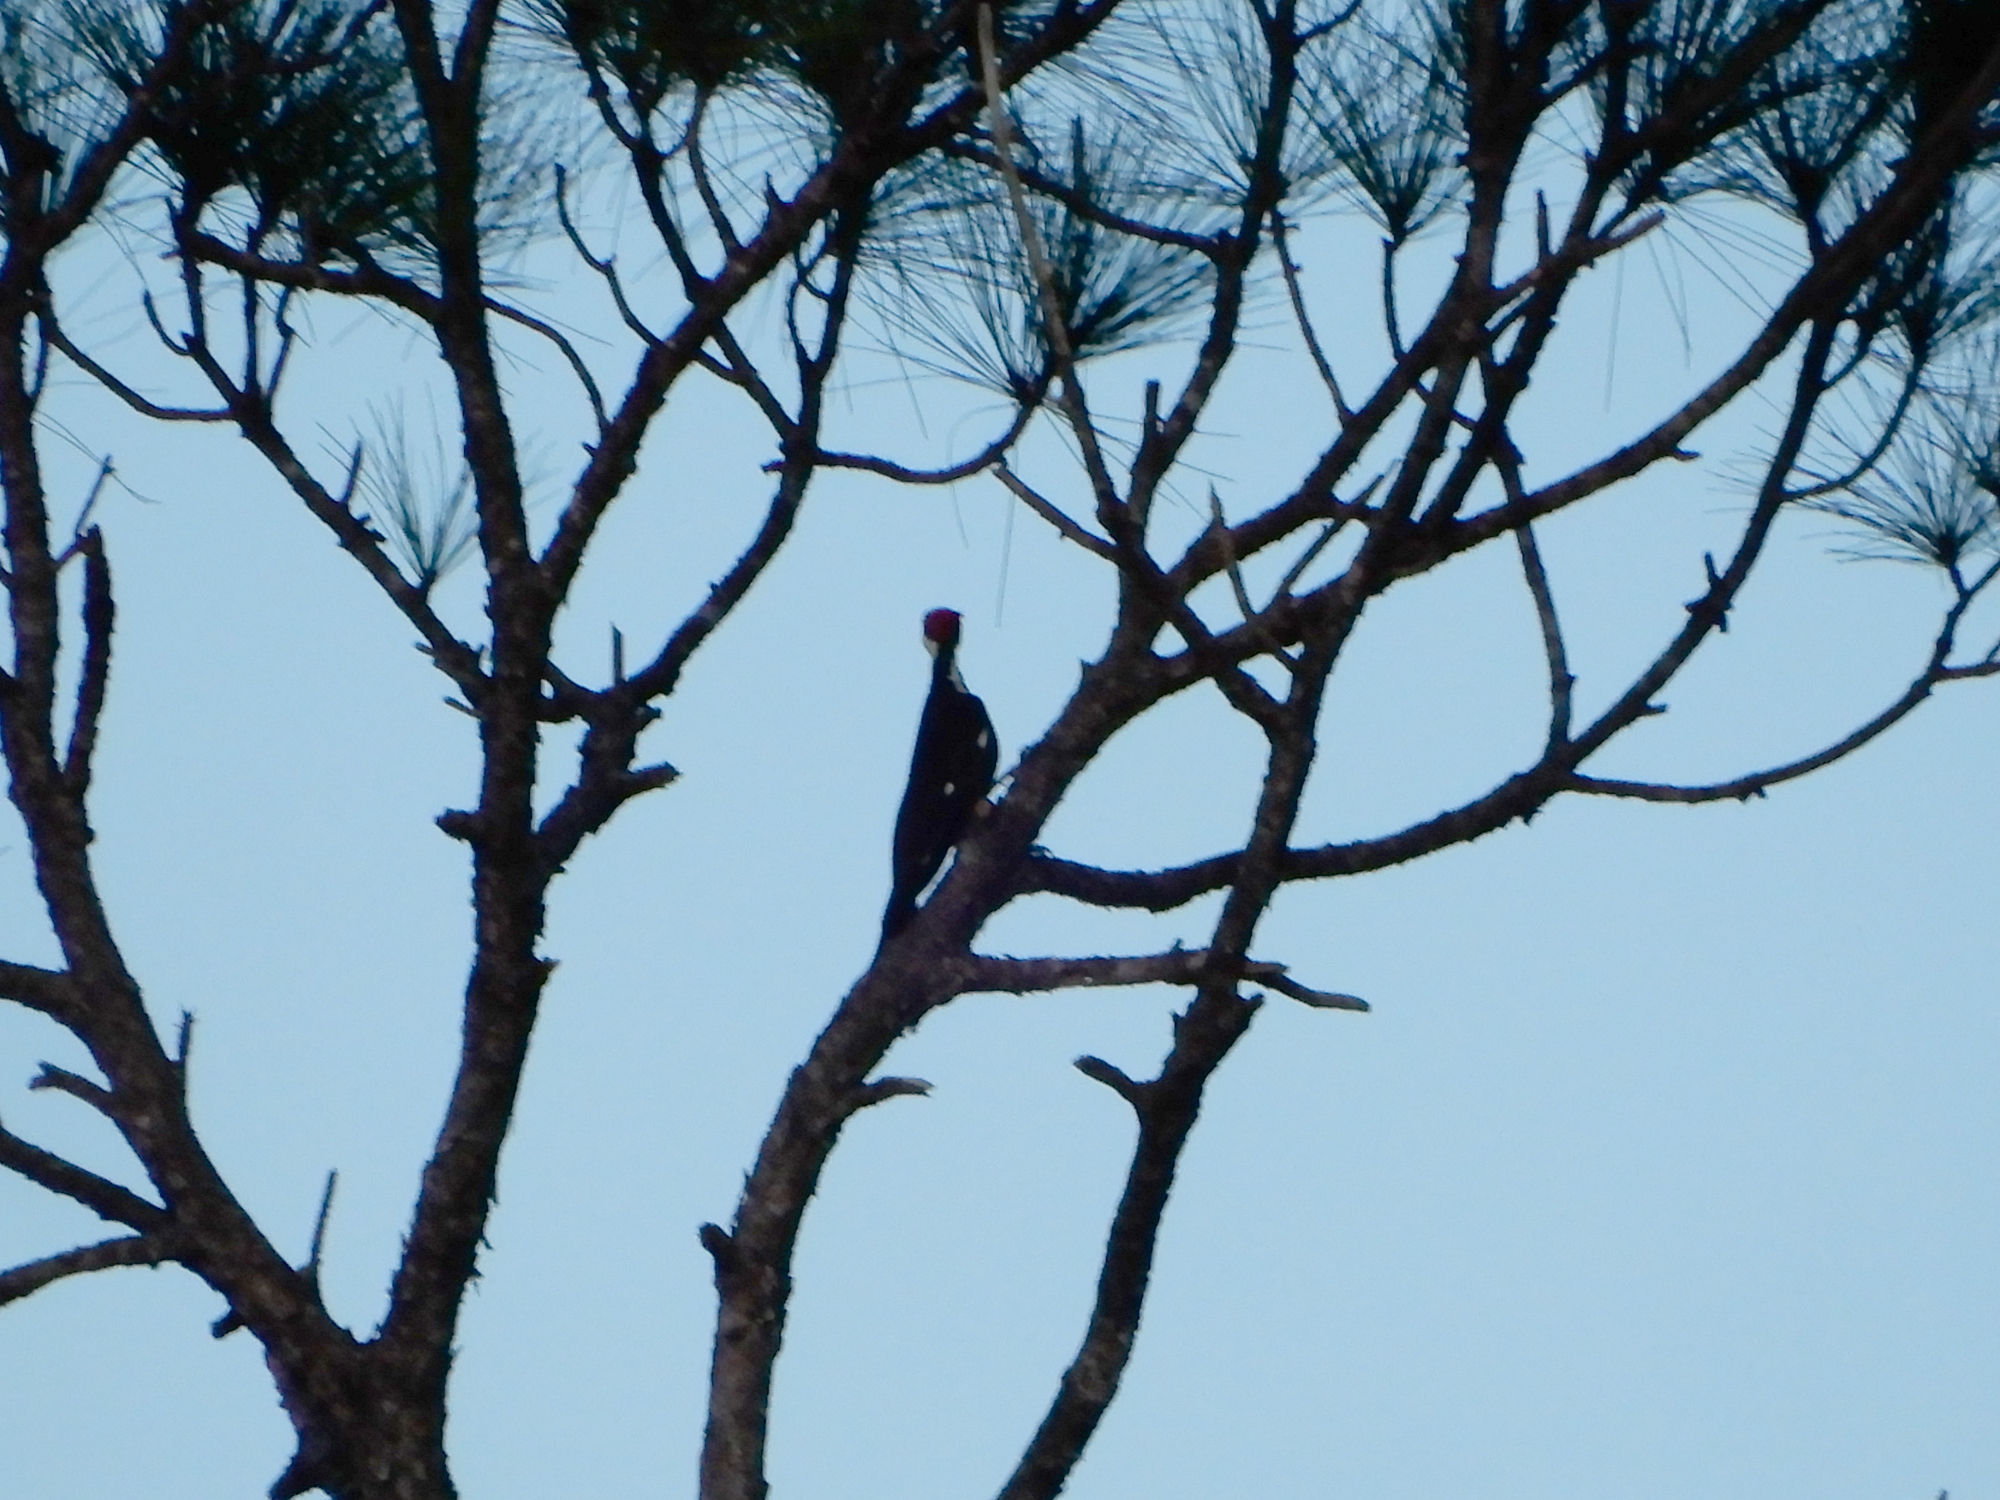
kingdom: Animalia
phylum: Chordata
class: Aves
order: Piciformes
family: Picidae
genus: Dryocopus
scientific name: Dryocopus pileatus
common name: Pileated woodpecker
